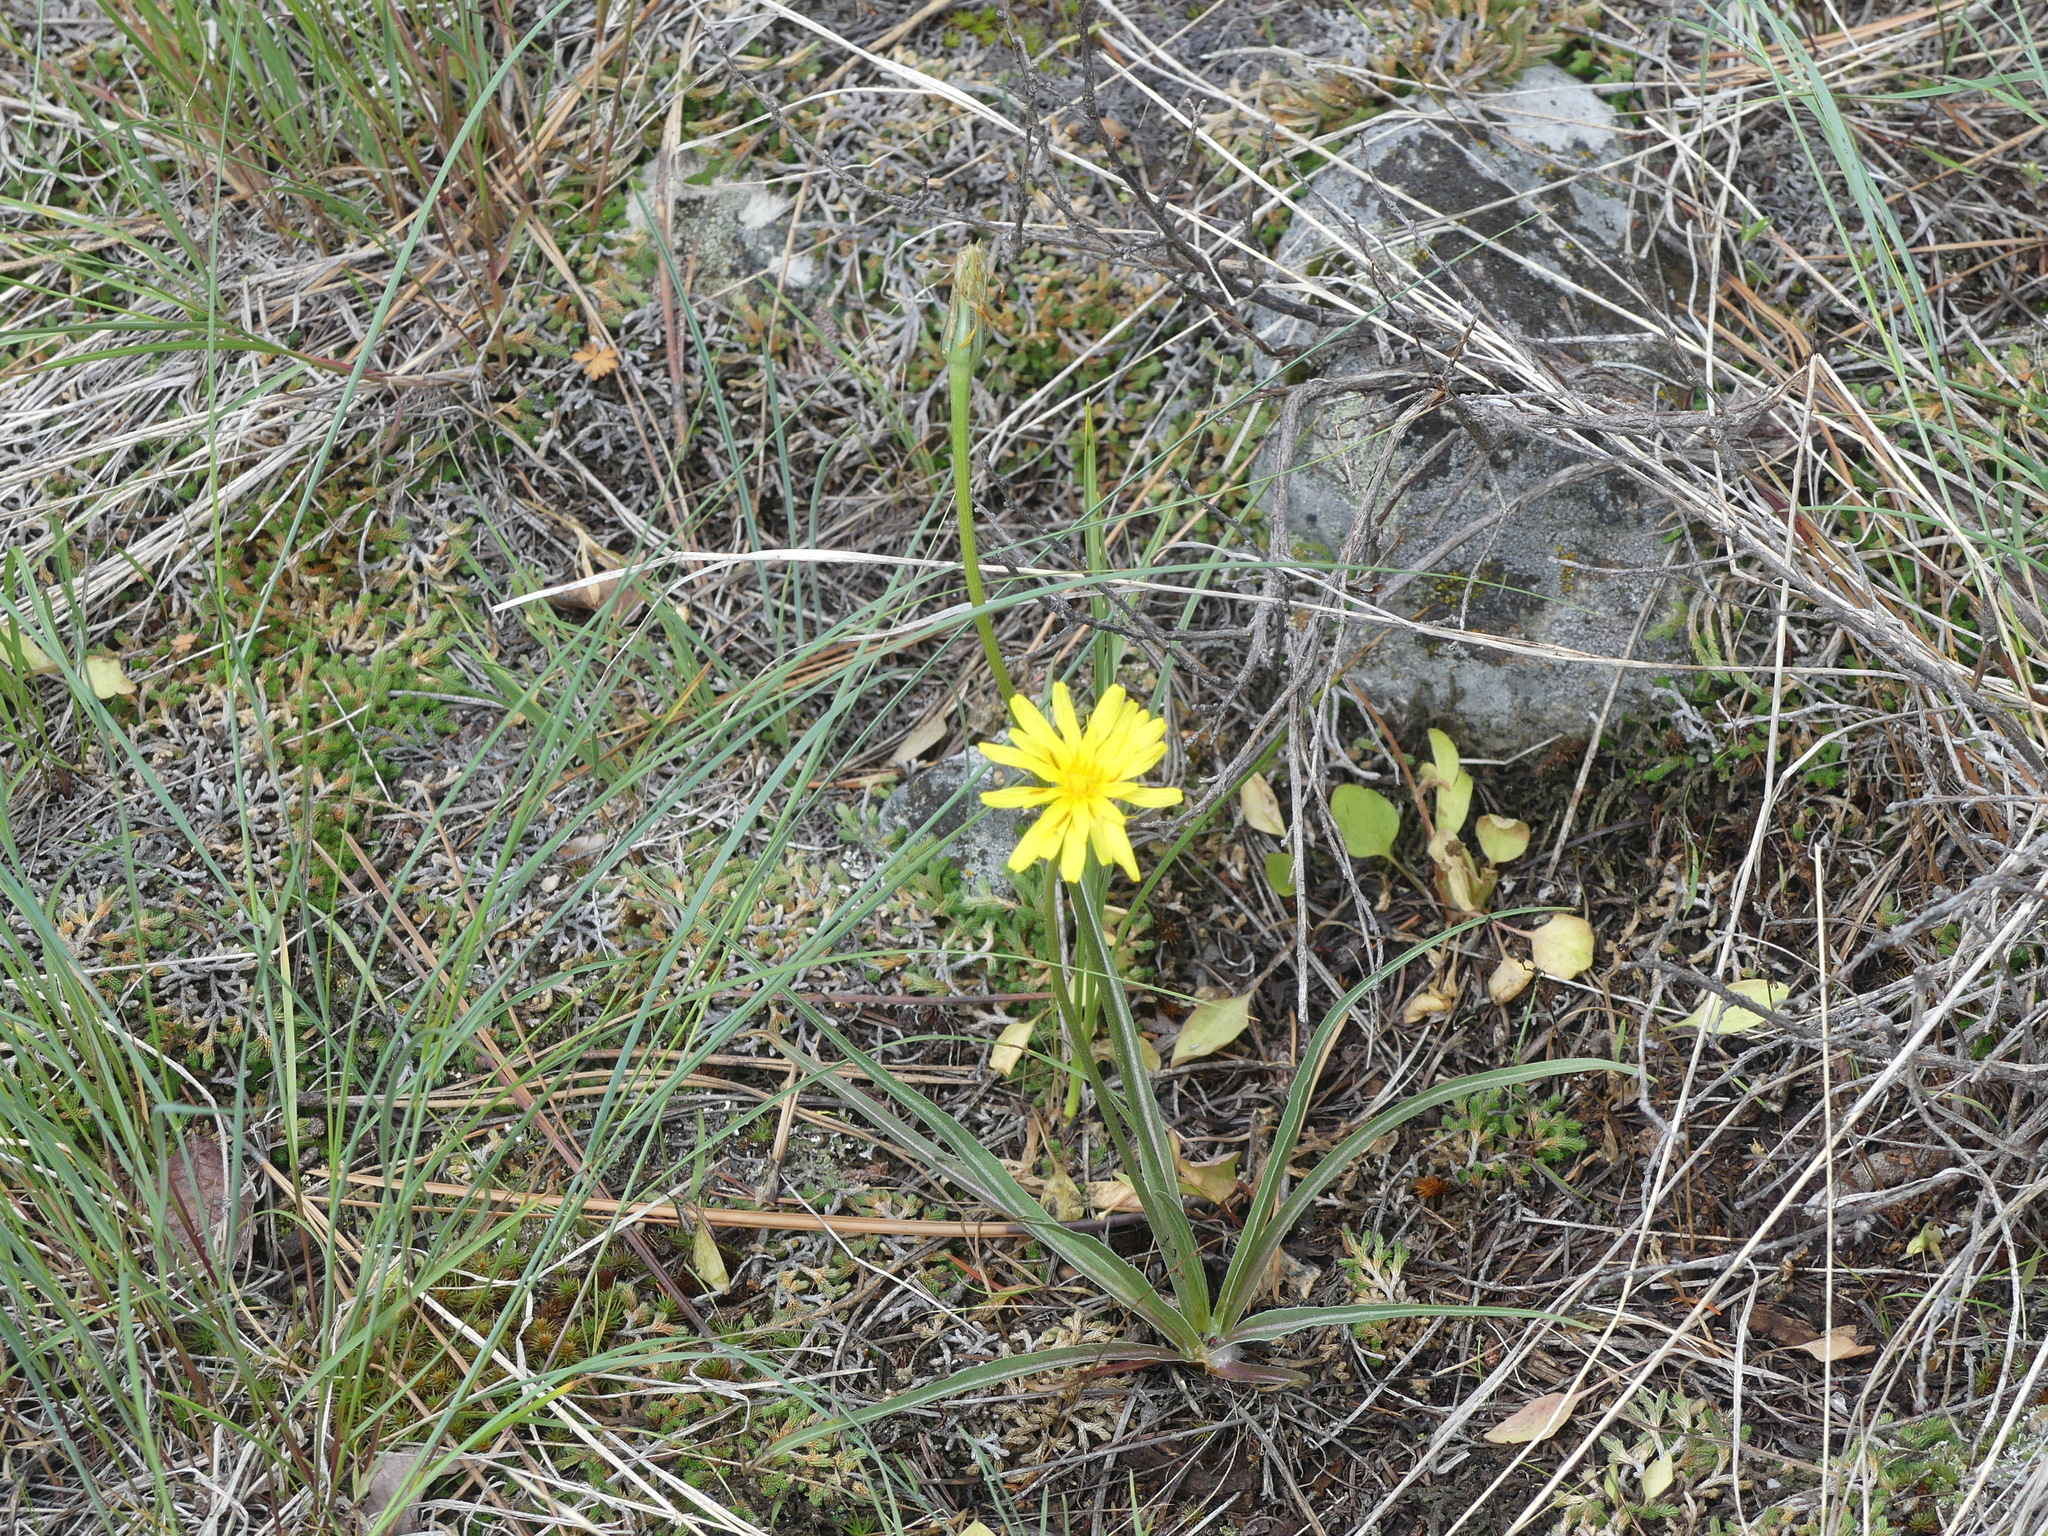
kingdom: Plantae
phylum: Tracheophyta
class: Magnoliopsida
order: Asterales
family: Asteraceae
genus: Microseris
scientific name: Microseris troximoides
